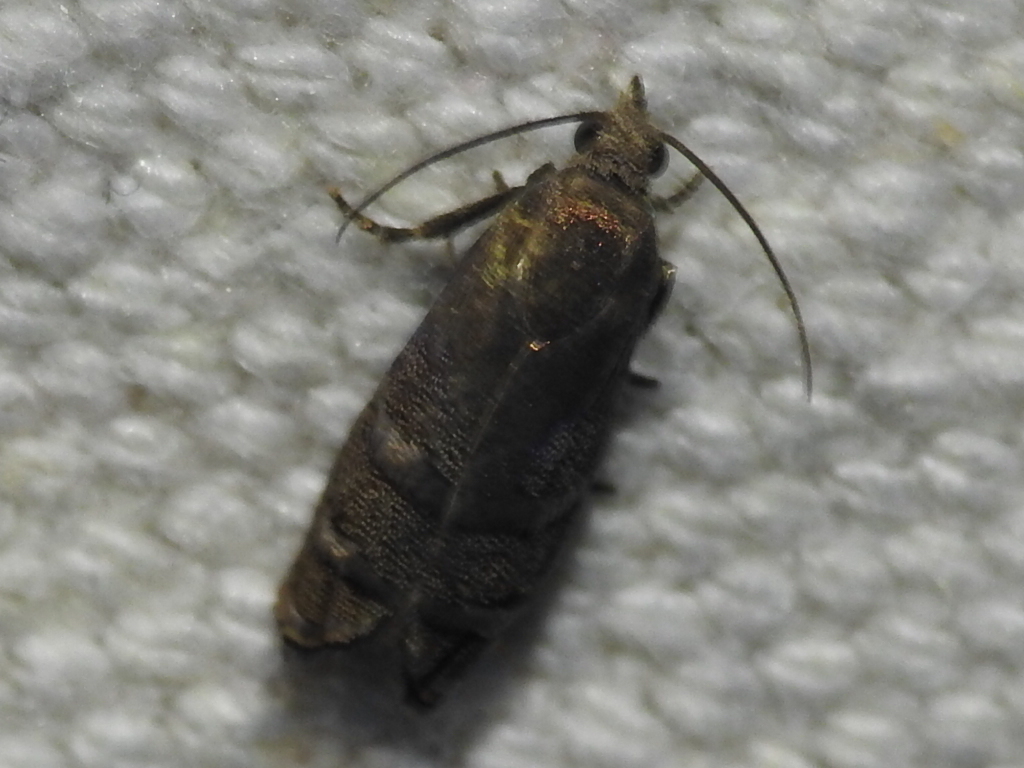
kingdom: Animalia
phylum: Arthropoda
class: Insecta
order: Lepidoptera
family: Tortricidae
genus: Cydia
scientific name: Cydia toreuta
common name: Eastern pine seedworm moth
